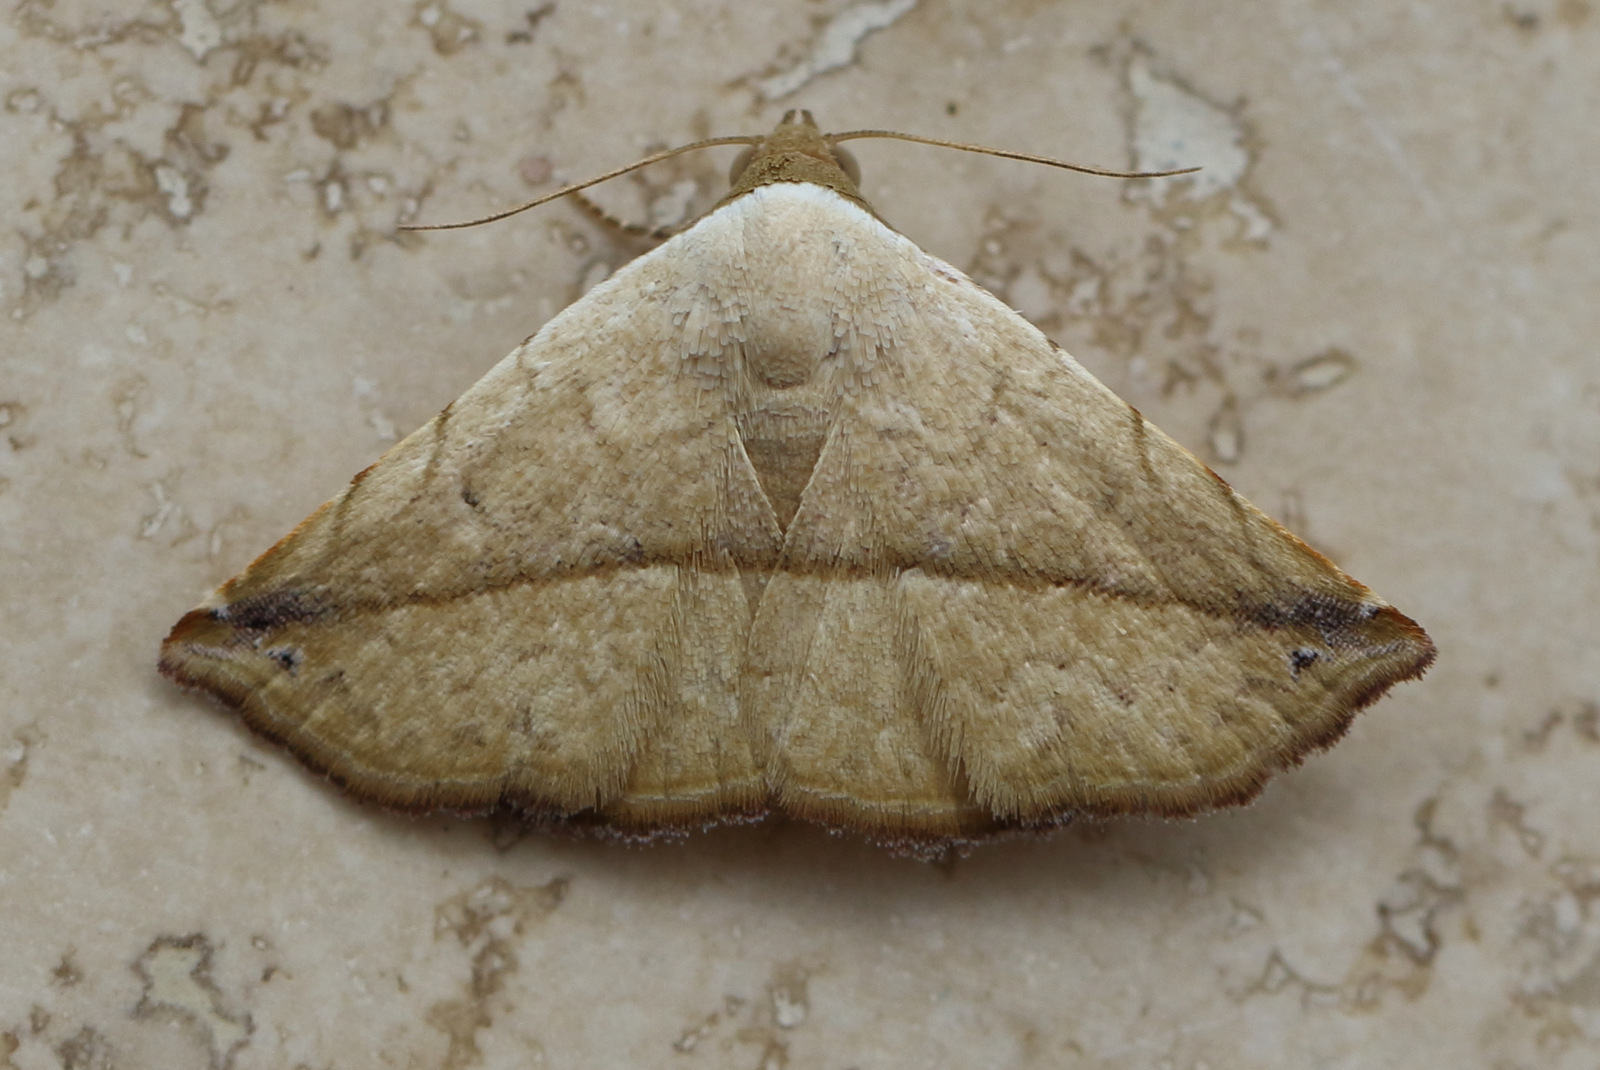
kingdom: Animalia
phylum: Arthropoda
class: Insecta
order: Lepidoptera
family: Noctuidae
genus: Eublemma
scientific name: Eublemma perversicolor
